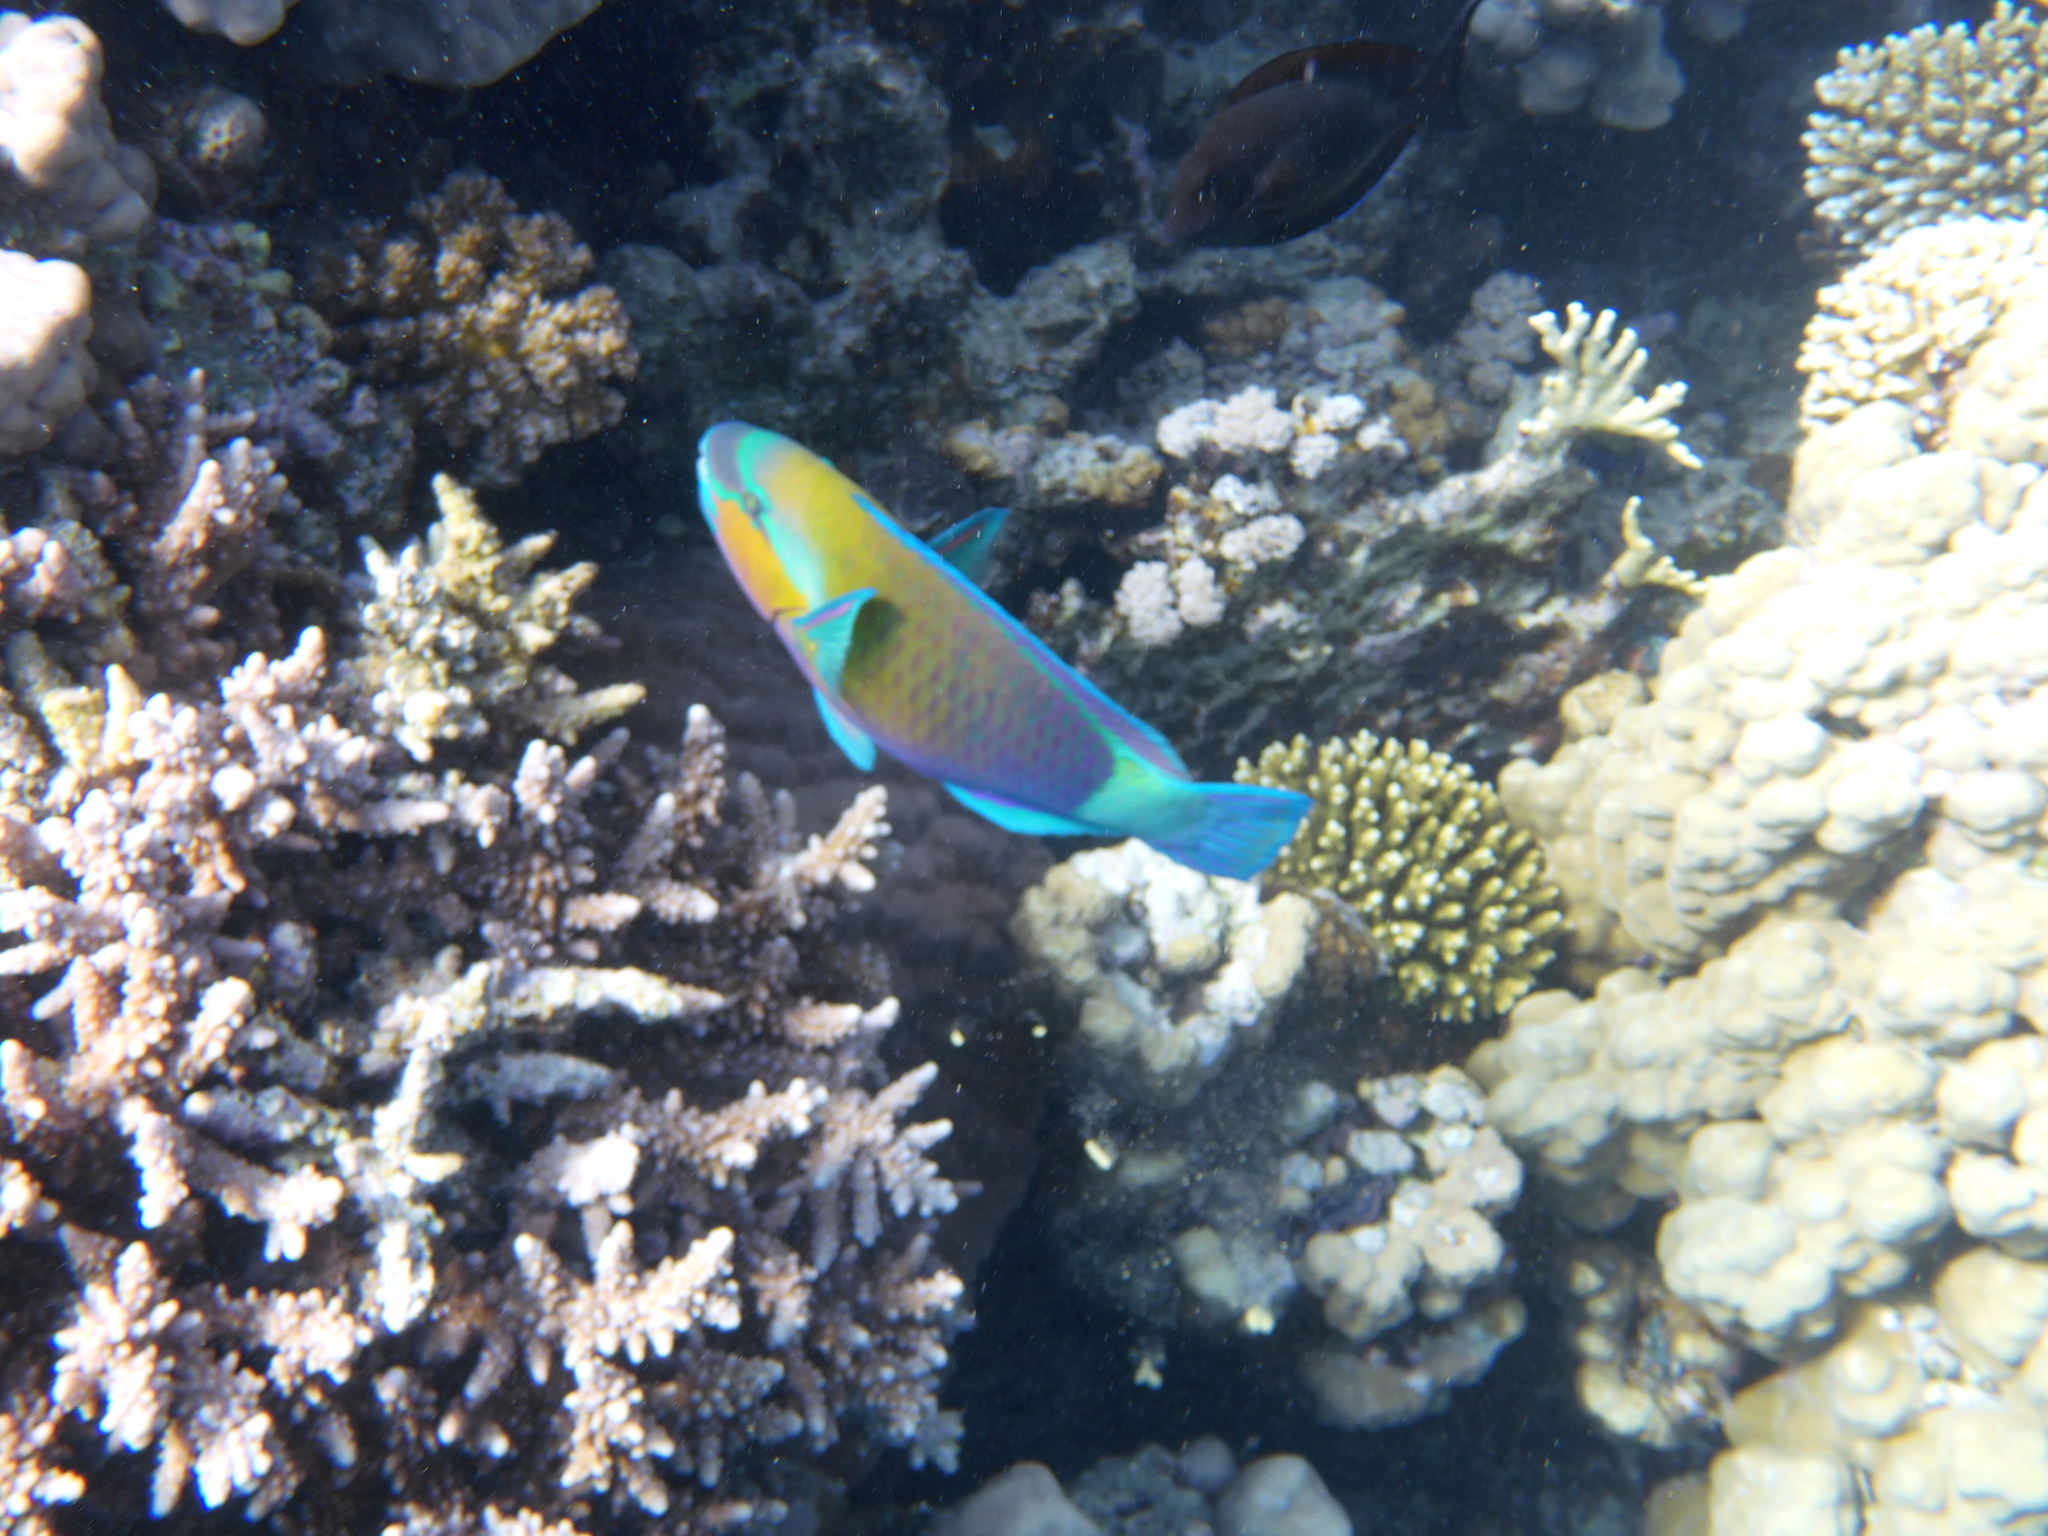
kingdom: Animalia
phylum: Chordata
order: Perciformes
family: Scaridae
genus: Chlorurus
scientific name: Chlorurus sordidus
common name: Bullethead parrotfish
